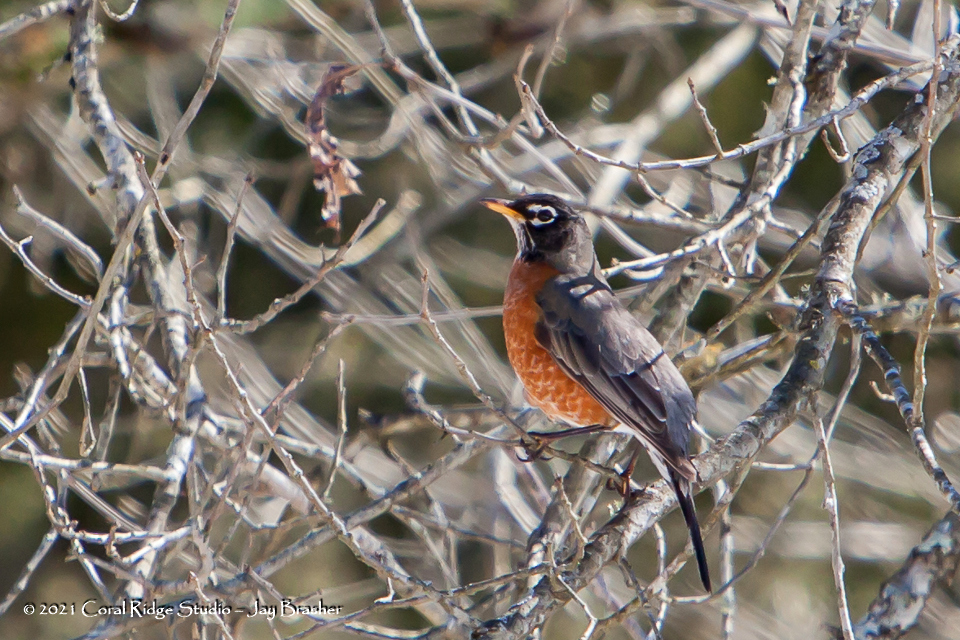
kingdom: Animalia
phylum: Chordata
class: Aves
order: Passeriformes
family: Turdidae
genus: Turdus
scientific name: Turdus migratorius
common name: American robin
